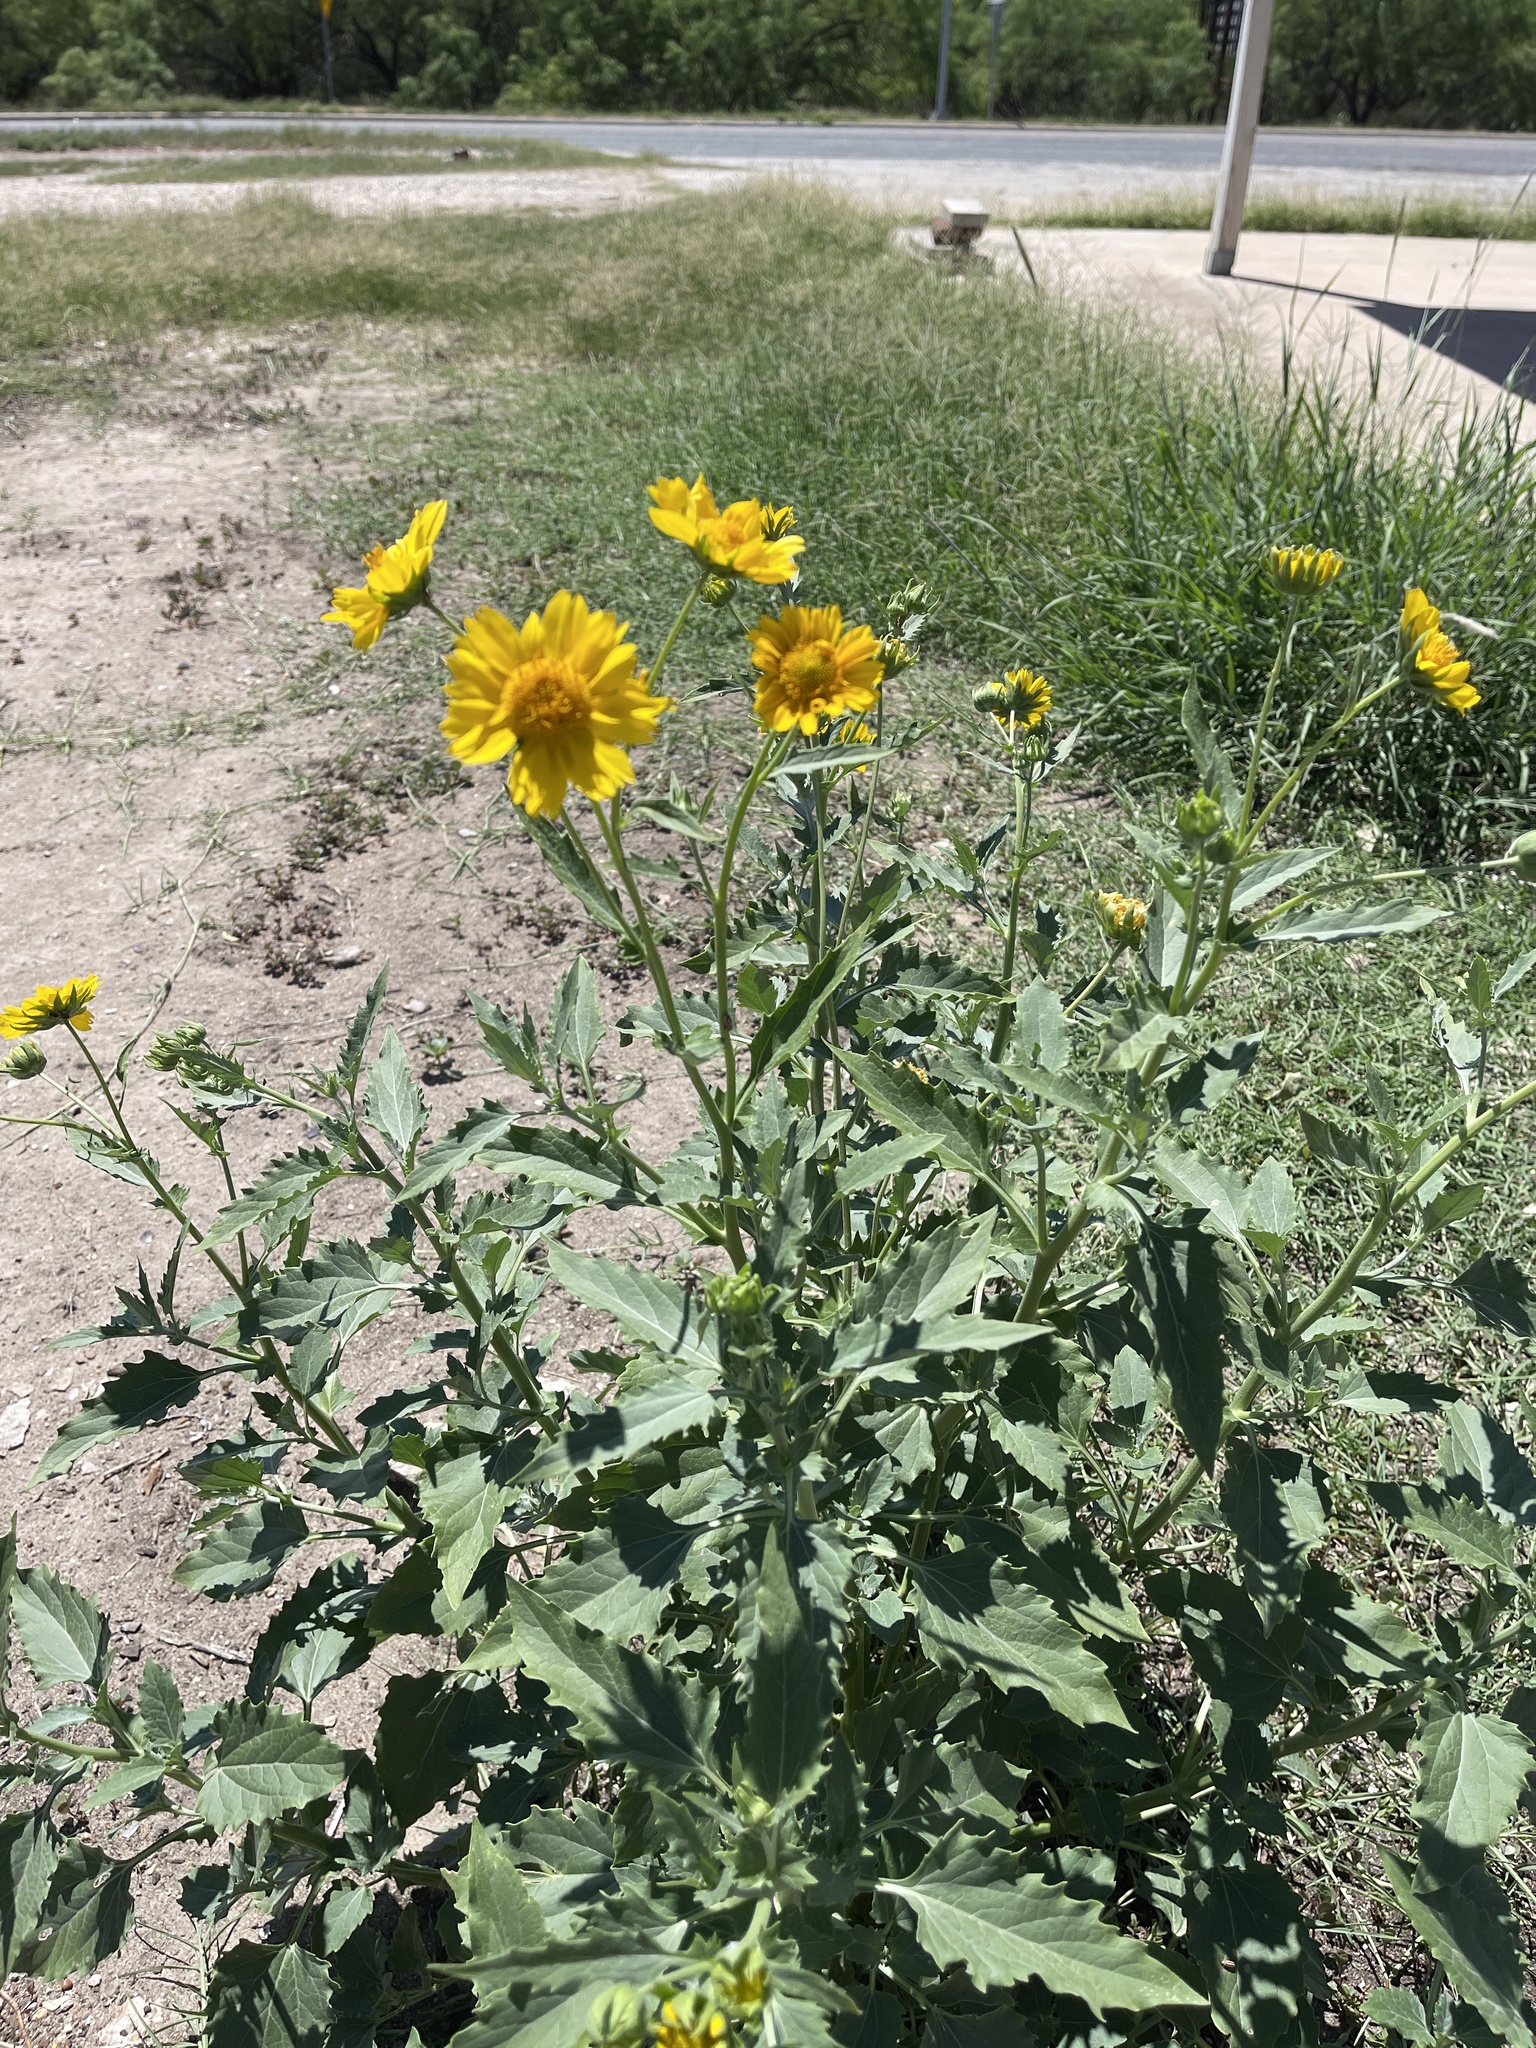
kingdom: Plantae
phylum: Tracheophyta
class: Magnoliopsida
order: Asterales
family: Asteraceae
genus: Verbesina
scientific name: Verbesina encelioides
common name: Golden crownbeard
